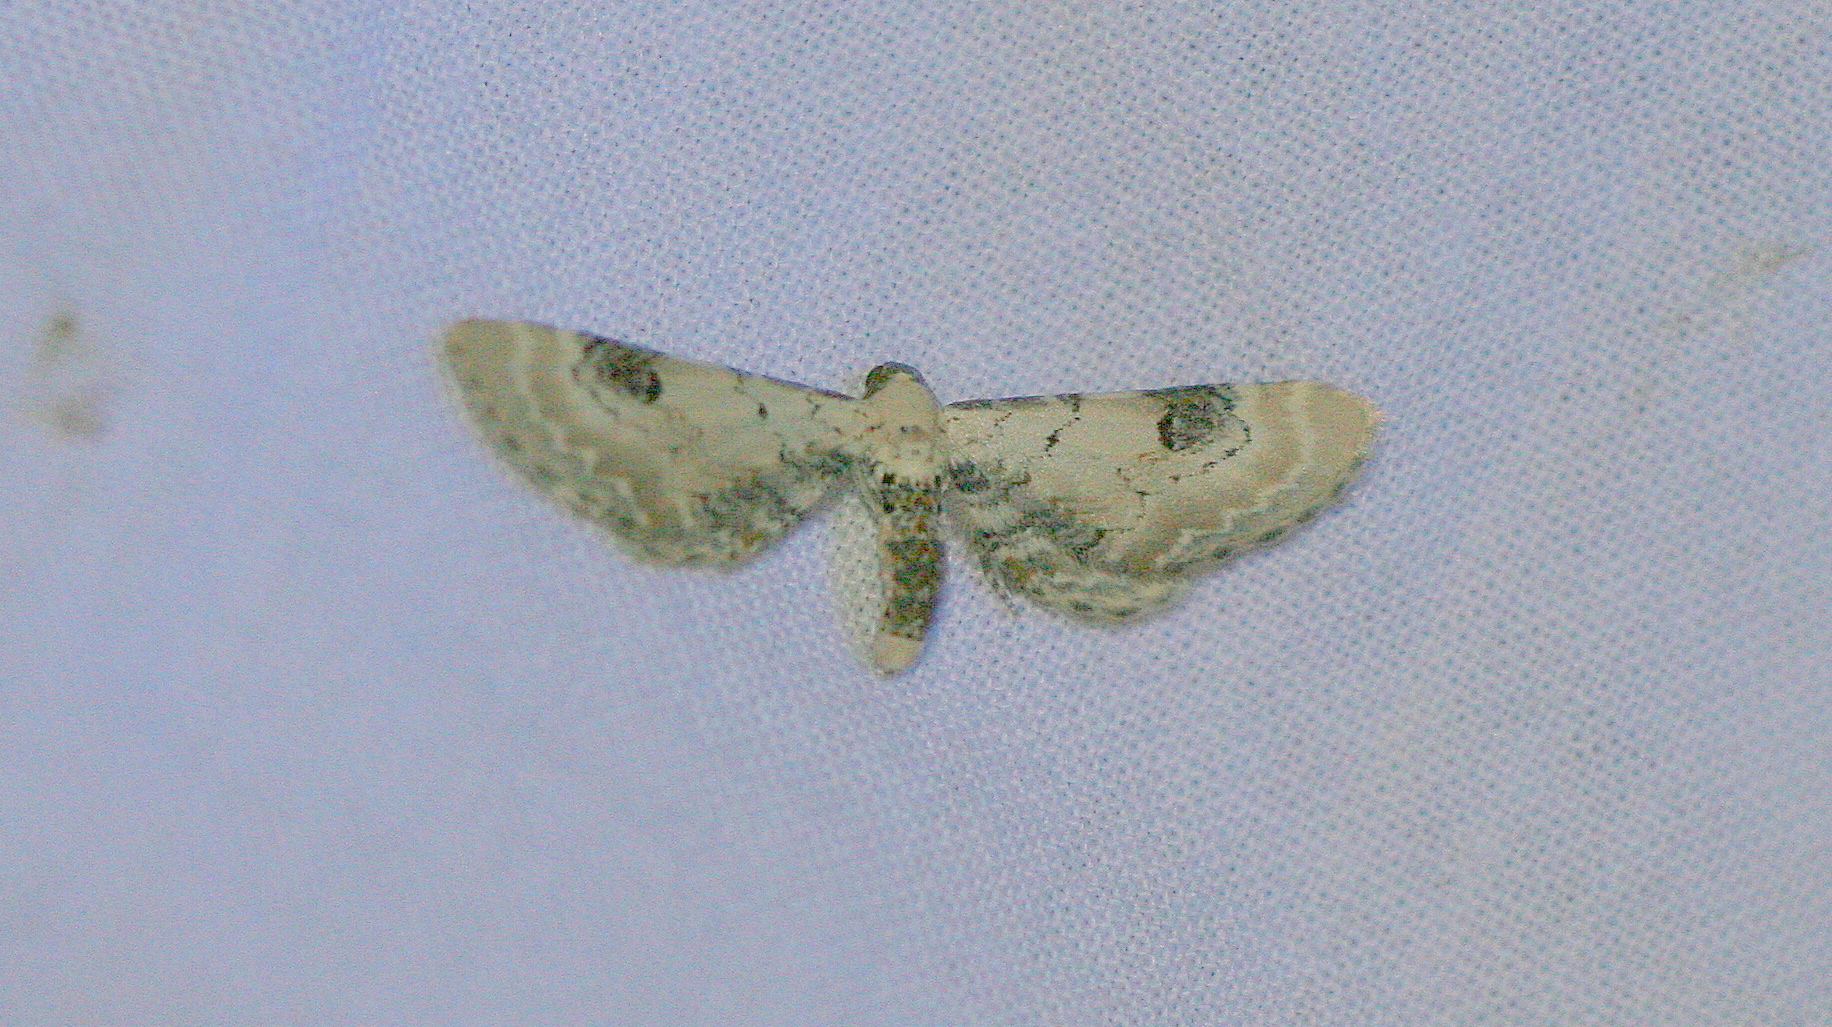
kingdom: Animalia
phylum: Arthropoda
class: Insecta
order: Lepidoptera
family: Geometridae
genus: Eupithecia
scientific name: Eupithecia centaureata
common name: Lime-speck pug
